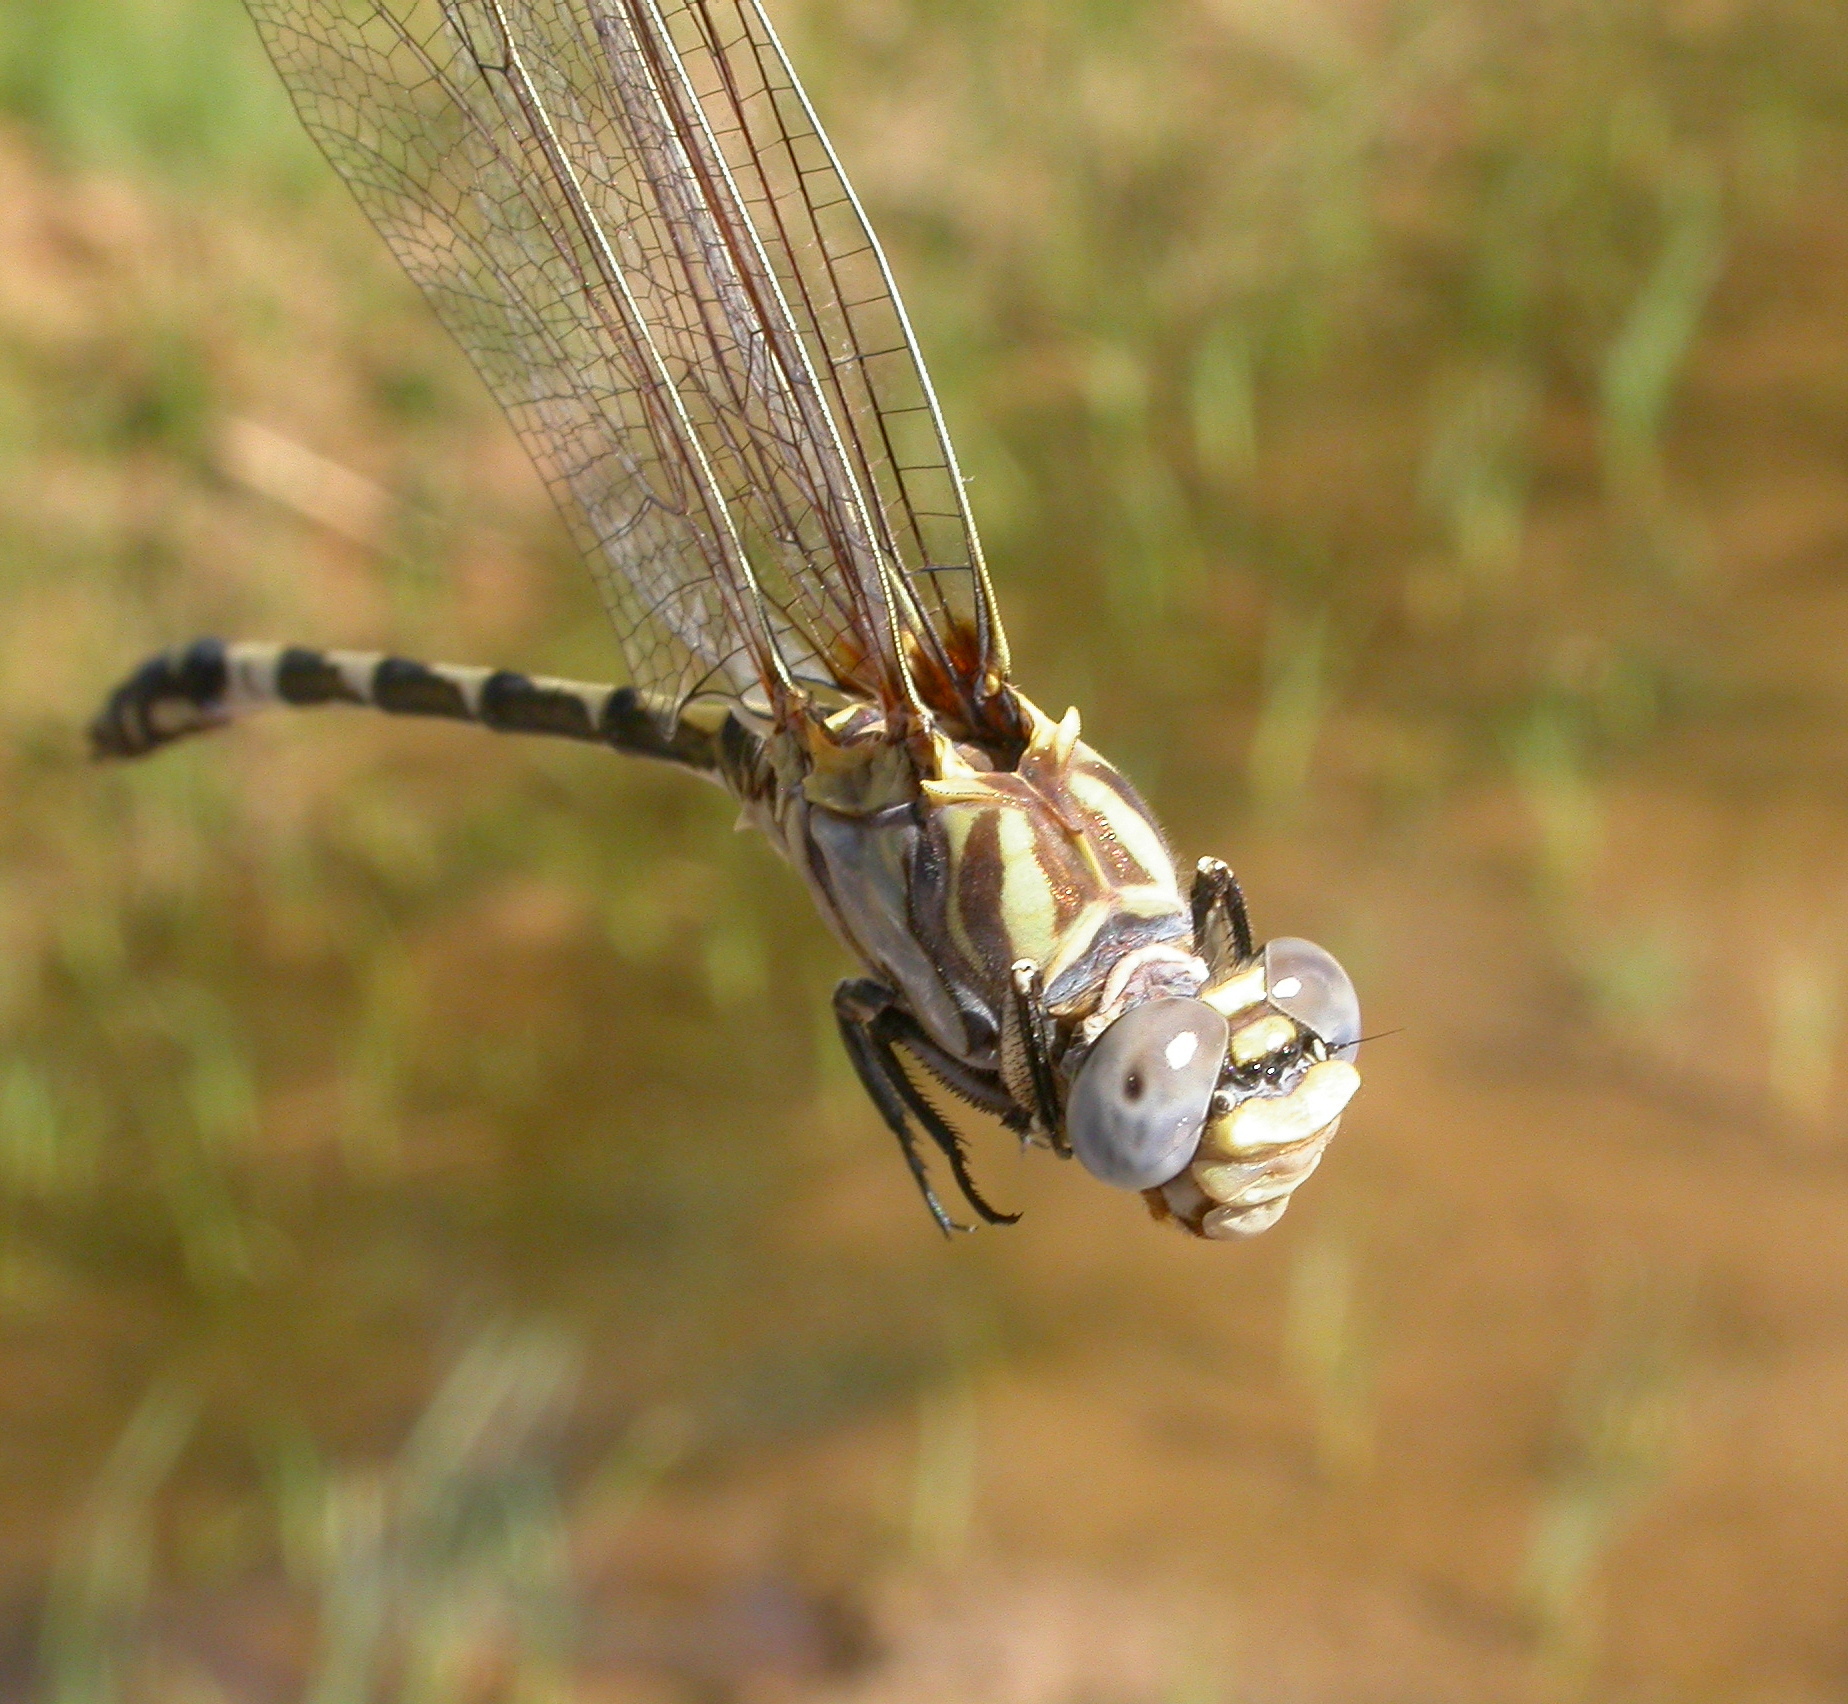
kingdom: Animalia
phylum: Arthropoda
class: Insecta
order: Odonata
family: Gomphidae
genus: Progomphus
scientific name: Progomphus borealis
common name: Gray sanddragon
